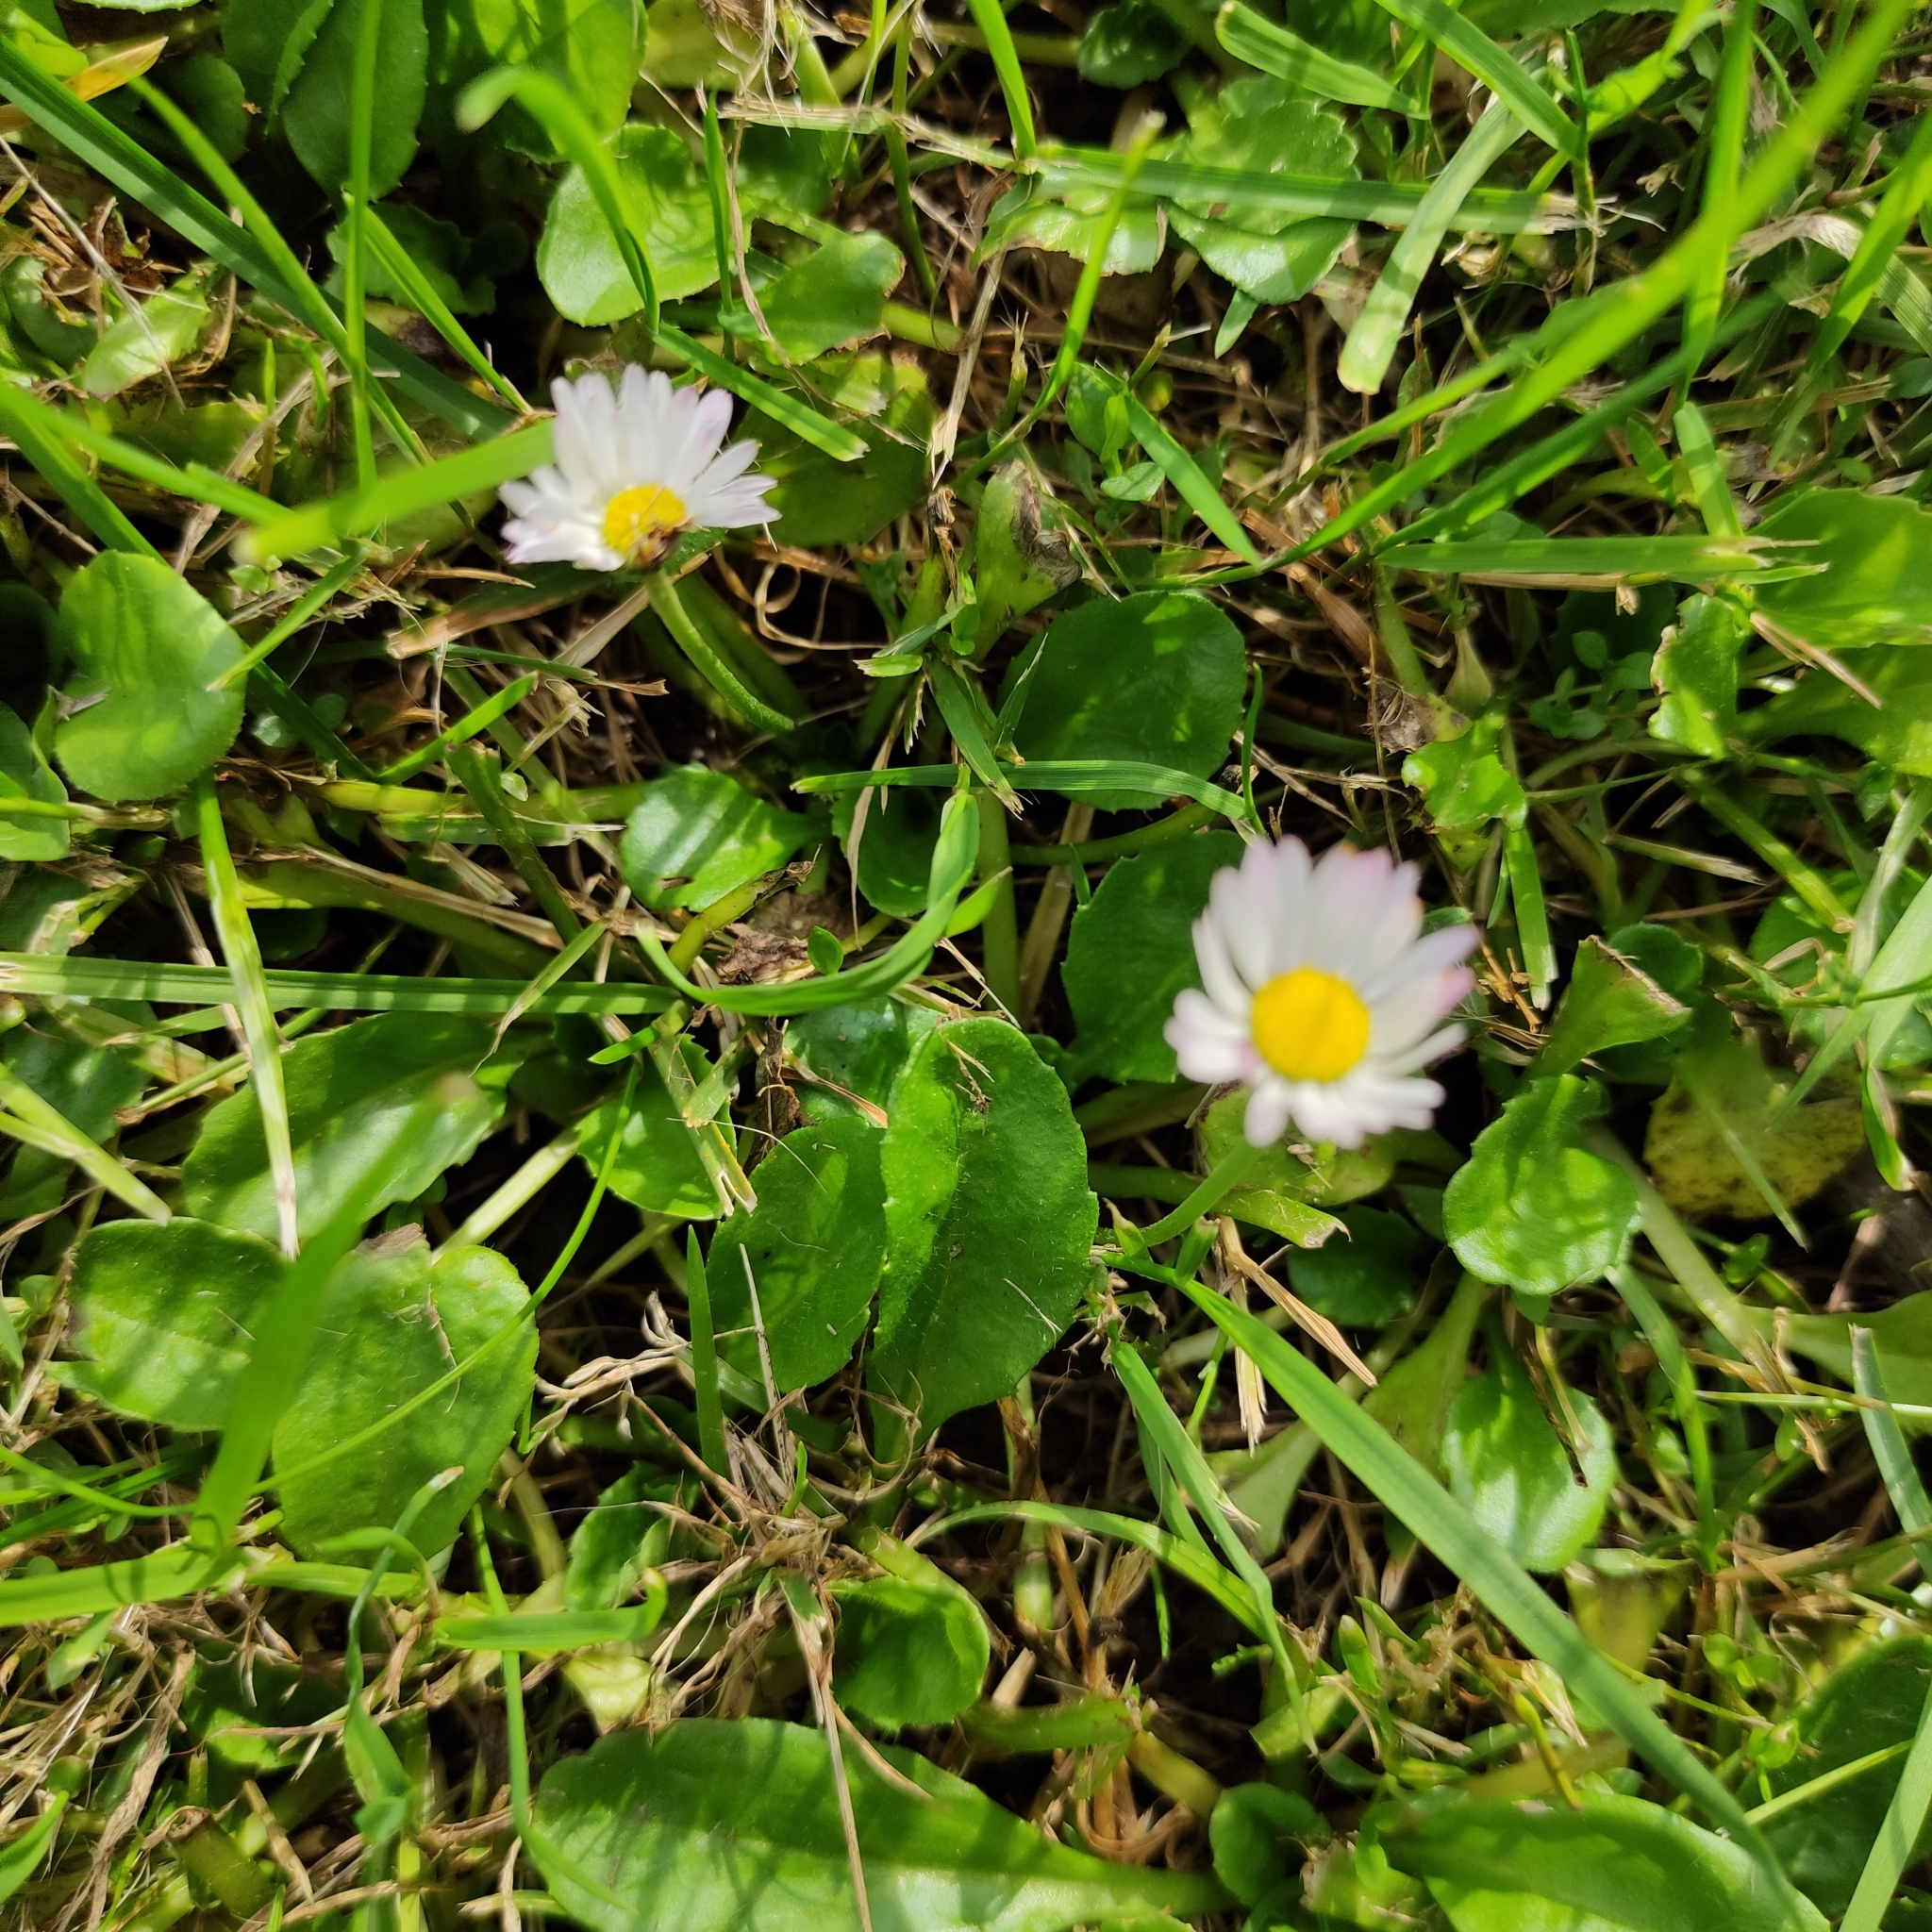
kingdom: Plantae
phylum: Tracheophyta
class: Magnoliopsida
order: Asterales
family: Asteraceae
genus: Bellis
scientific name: Bellis perennis
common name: Lawndaisy
